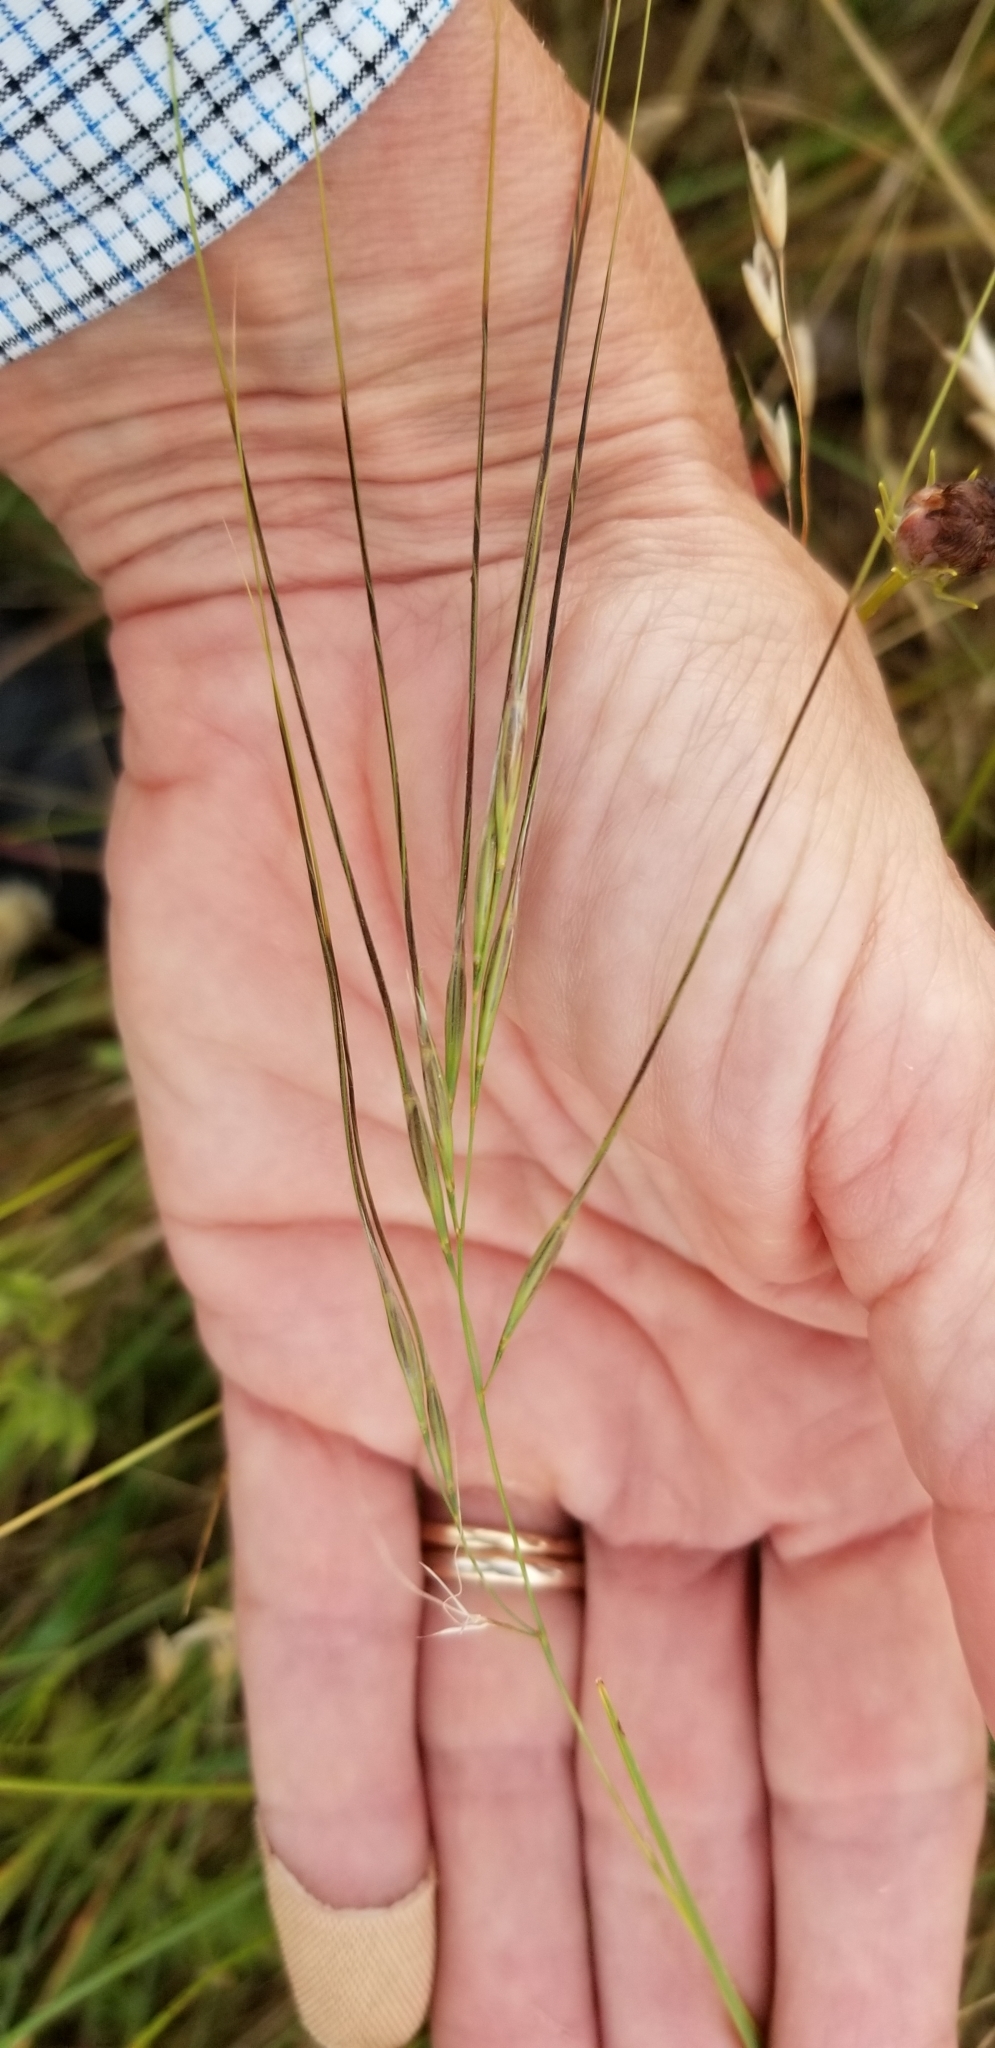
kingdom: Plantae
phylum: Tracheophyta
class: Liliopsida
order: Poales
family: Poaceae
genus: Nassella
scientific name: Nassella leucotricha
